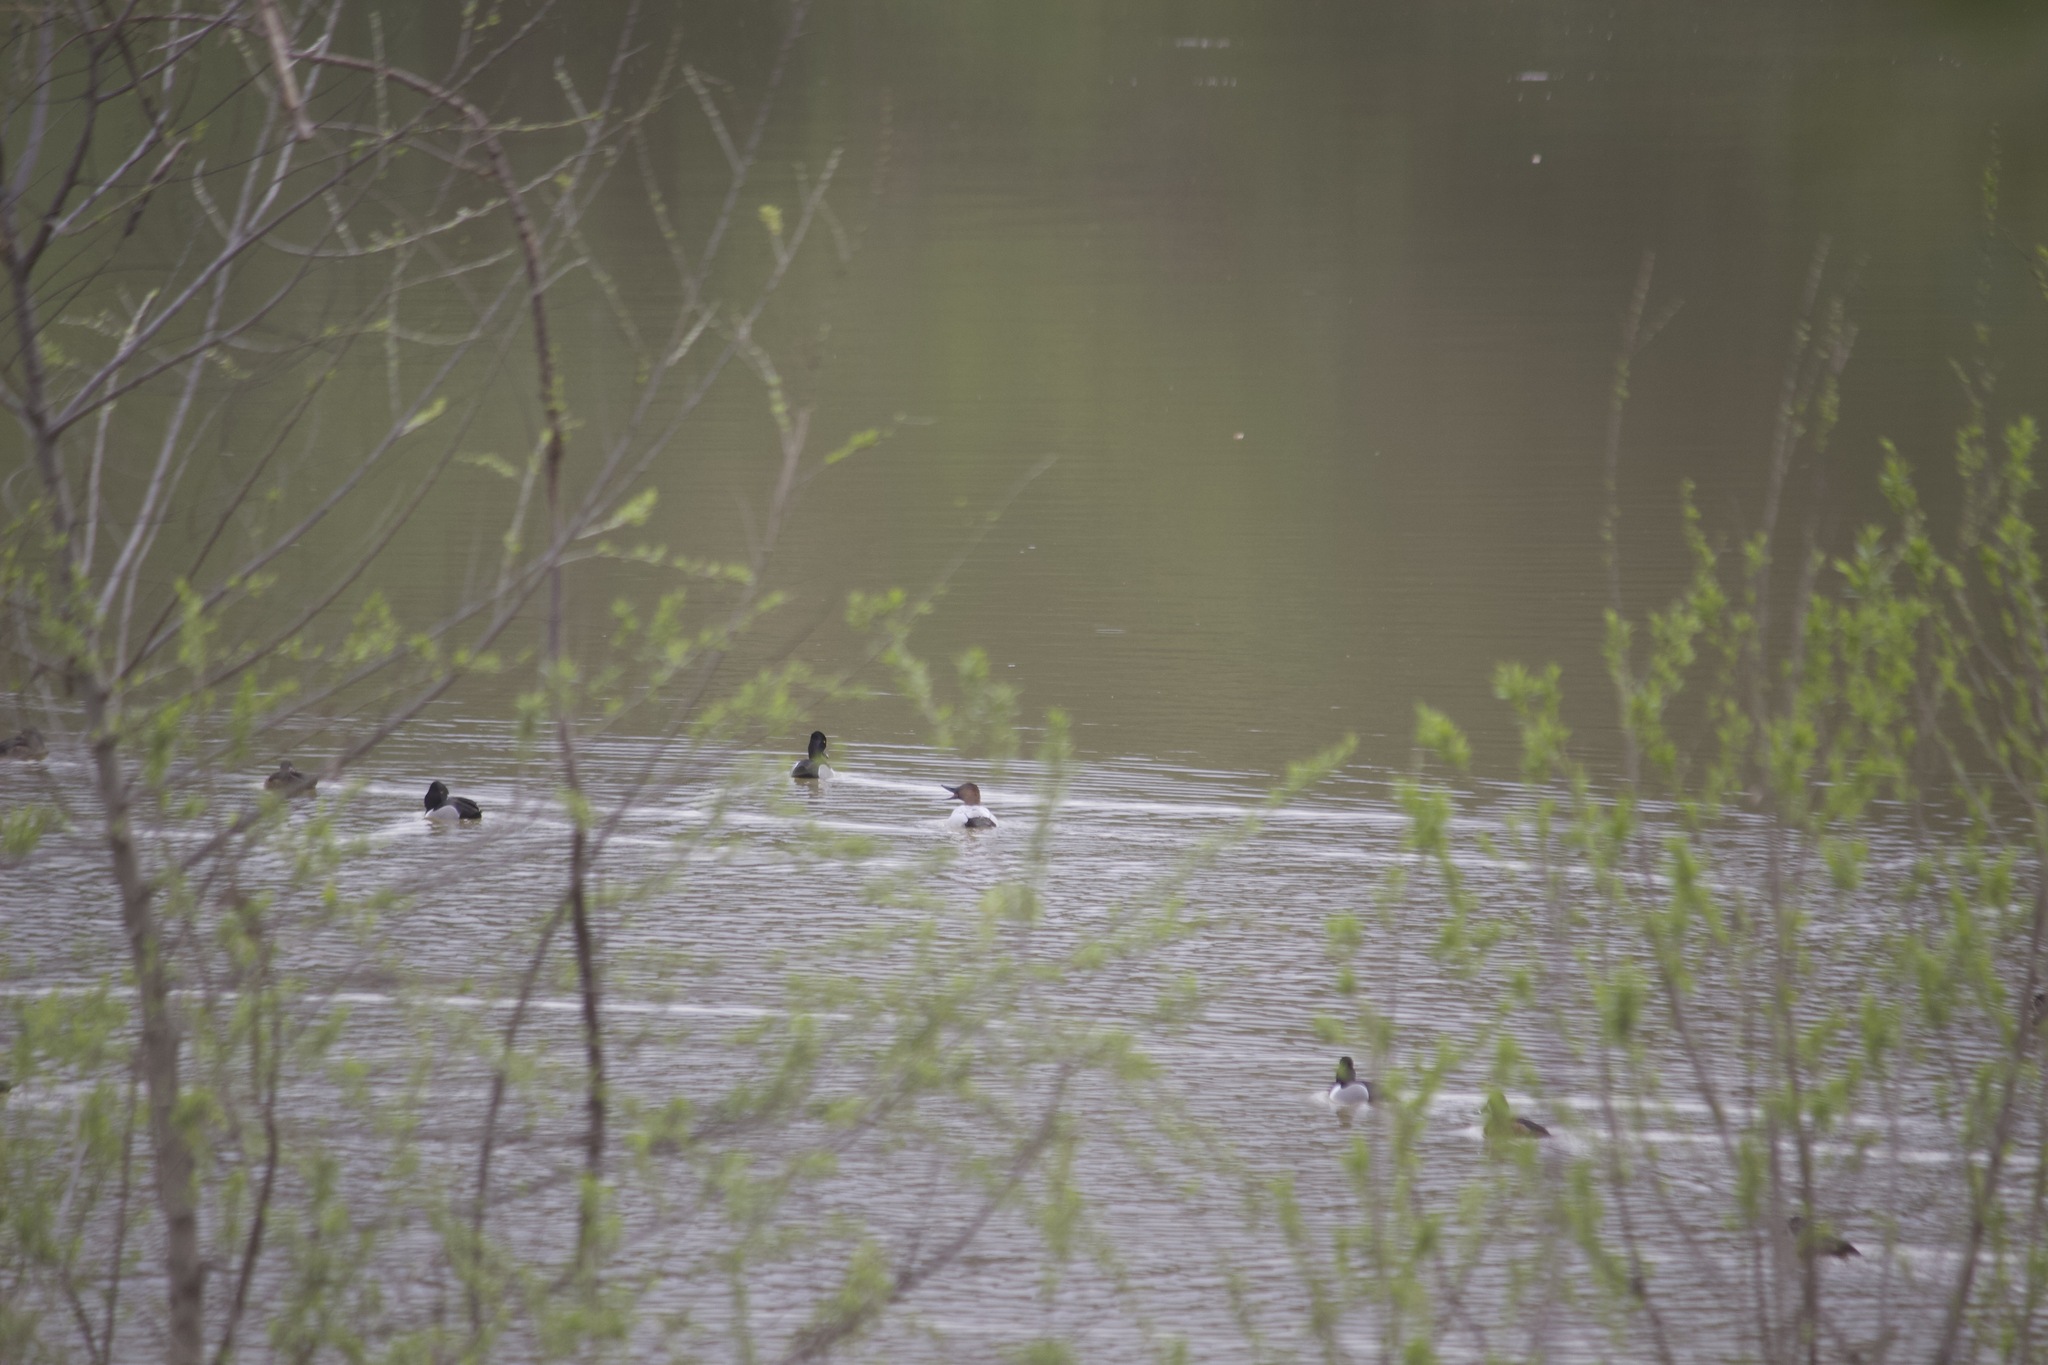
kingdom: Animalia
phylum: Chordata
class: Aves
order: Anseriformes
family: Anatidae
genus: Aythya
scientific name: Aythya valisineria
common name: Canvasback
